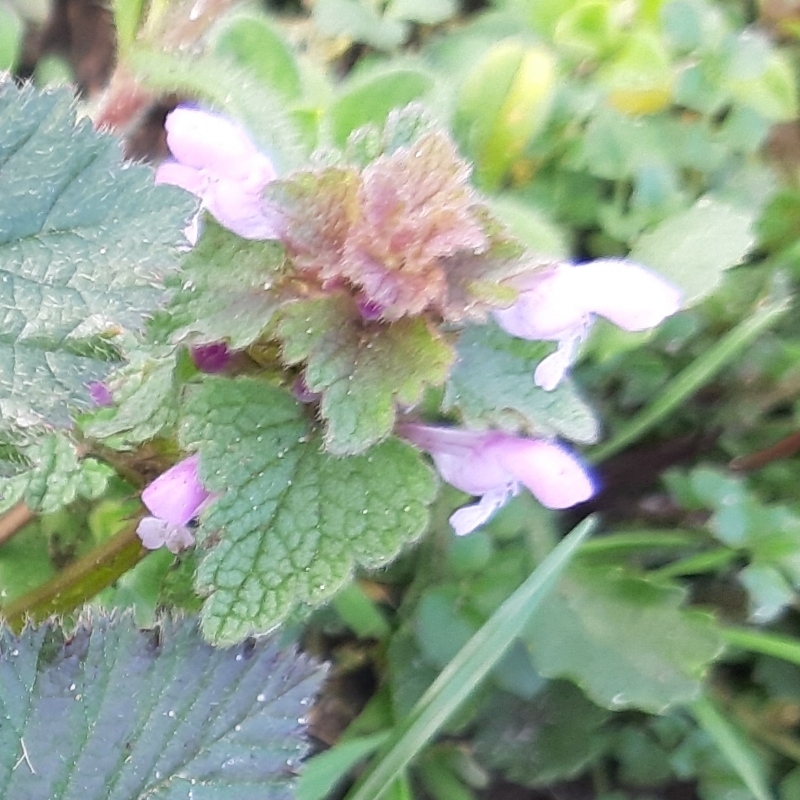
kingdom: Plantae
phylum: Tracheophyta
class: Magnoliopsida
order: Lamiales
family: Lamiaceae
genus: Lamium
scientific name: Lamium purpureum
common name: Red dead-nettle
